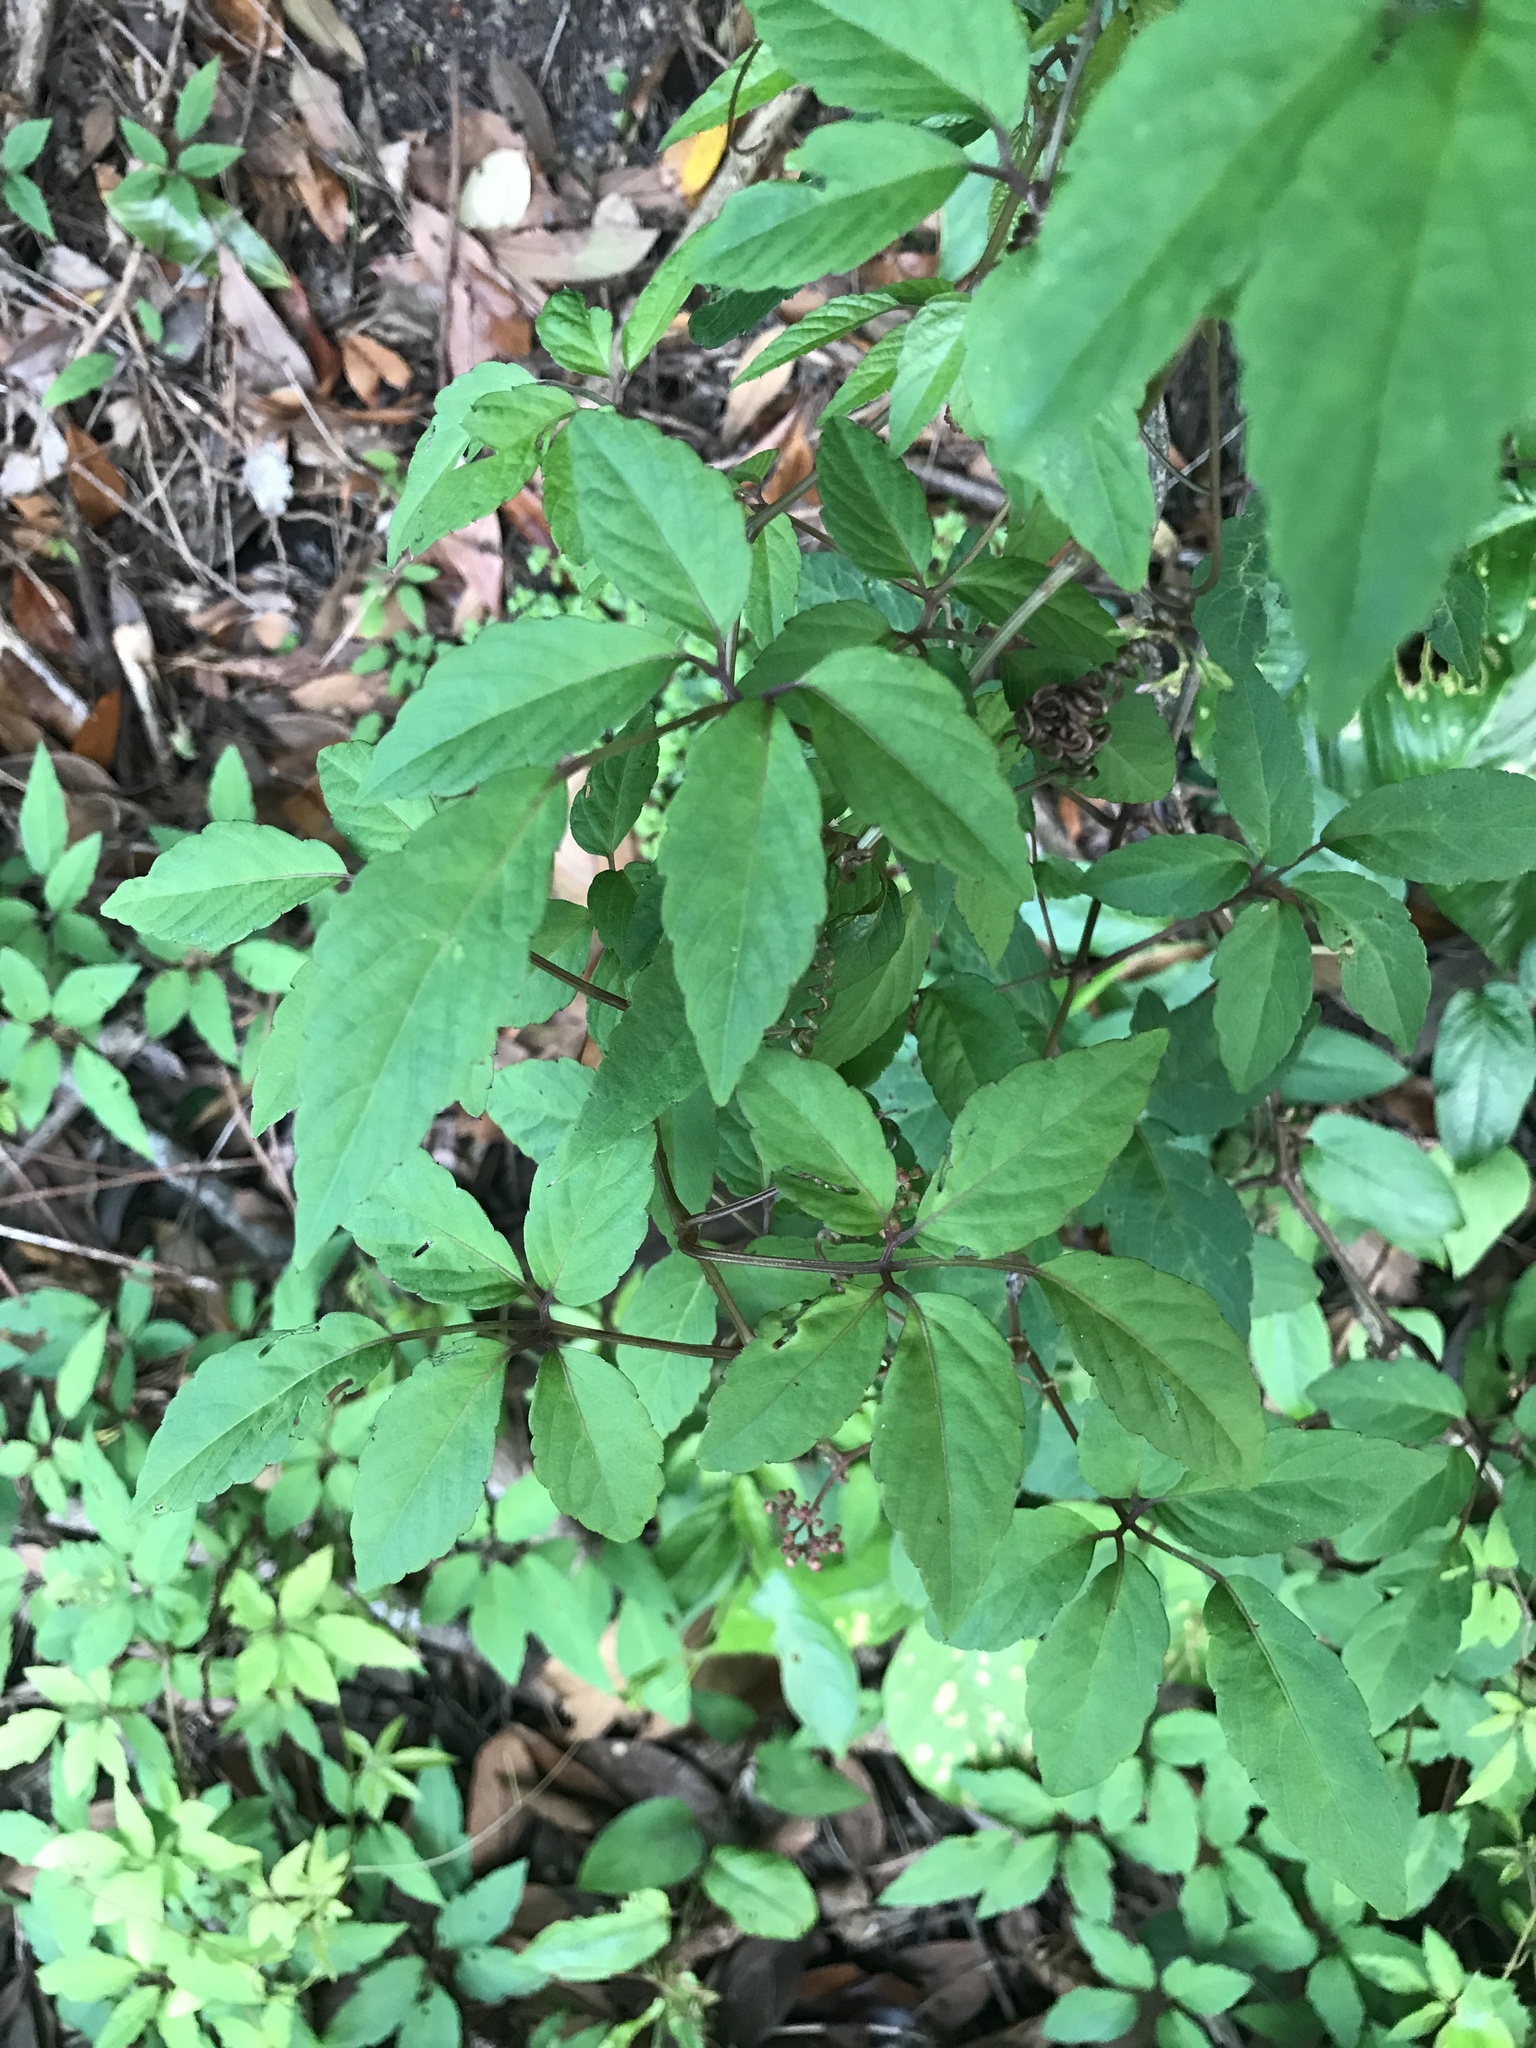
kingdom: Plantae
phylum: Tracheophyta
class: Magnoliopsida
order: Vitales
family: Vitaceae
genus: Pseudocayratia
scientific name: Pseudocayratia yoshimurae
